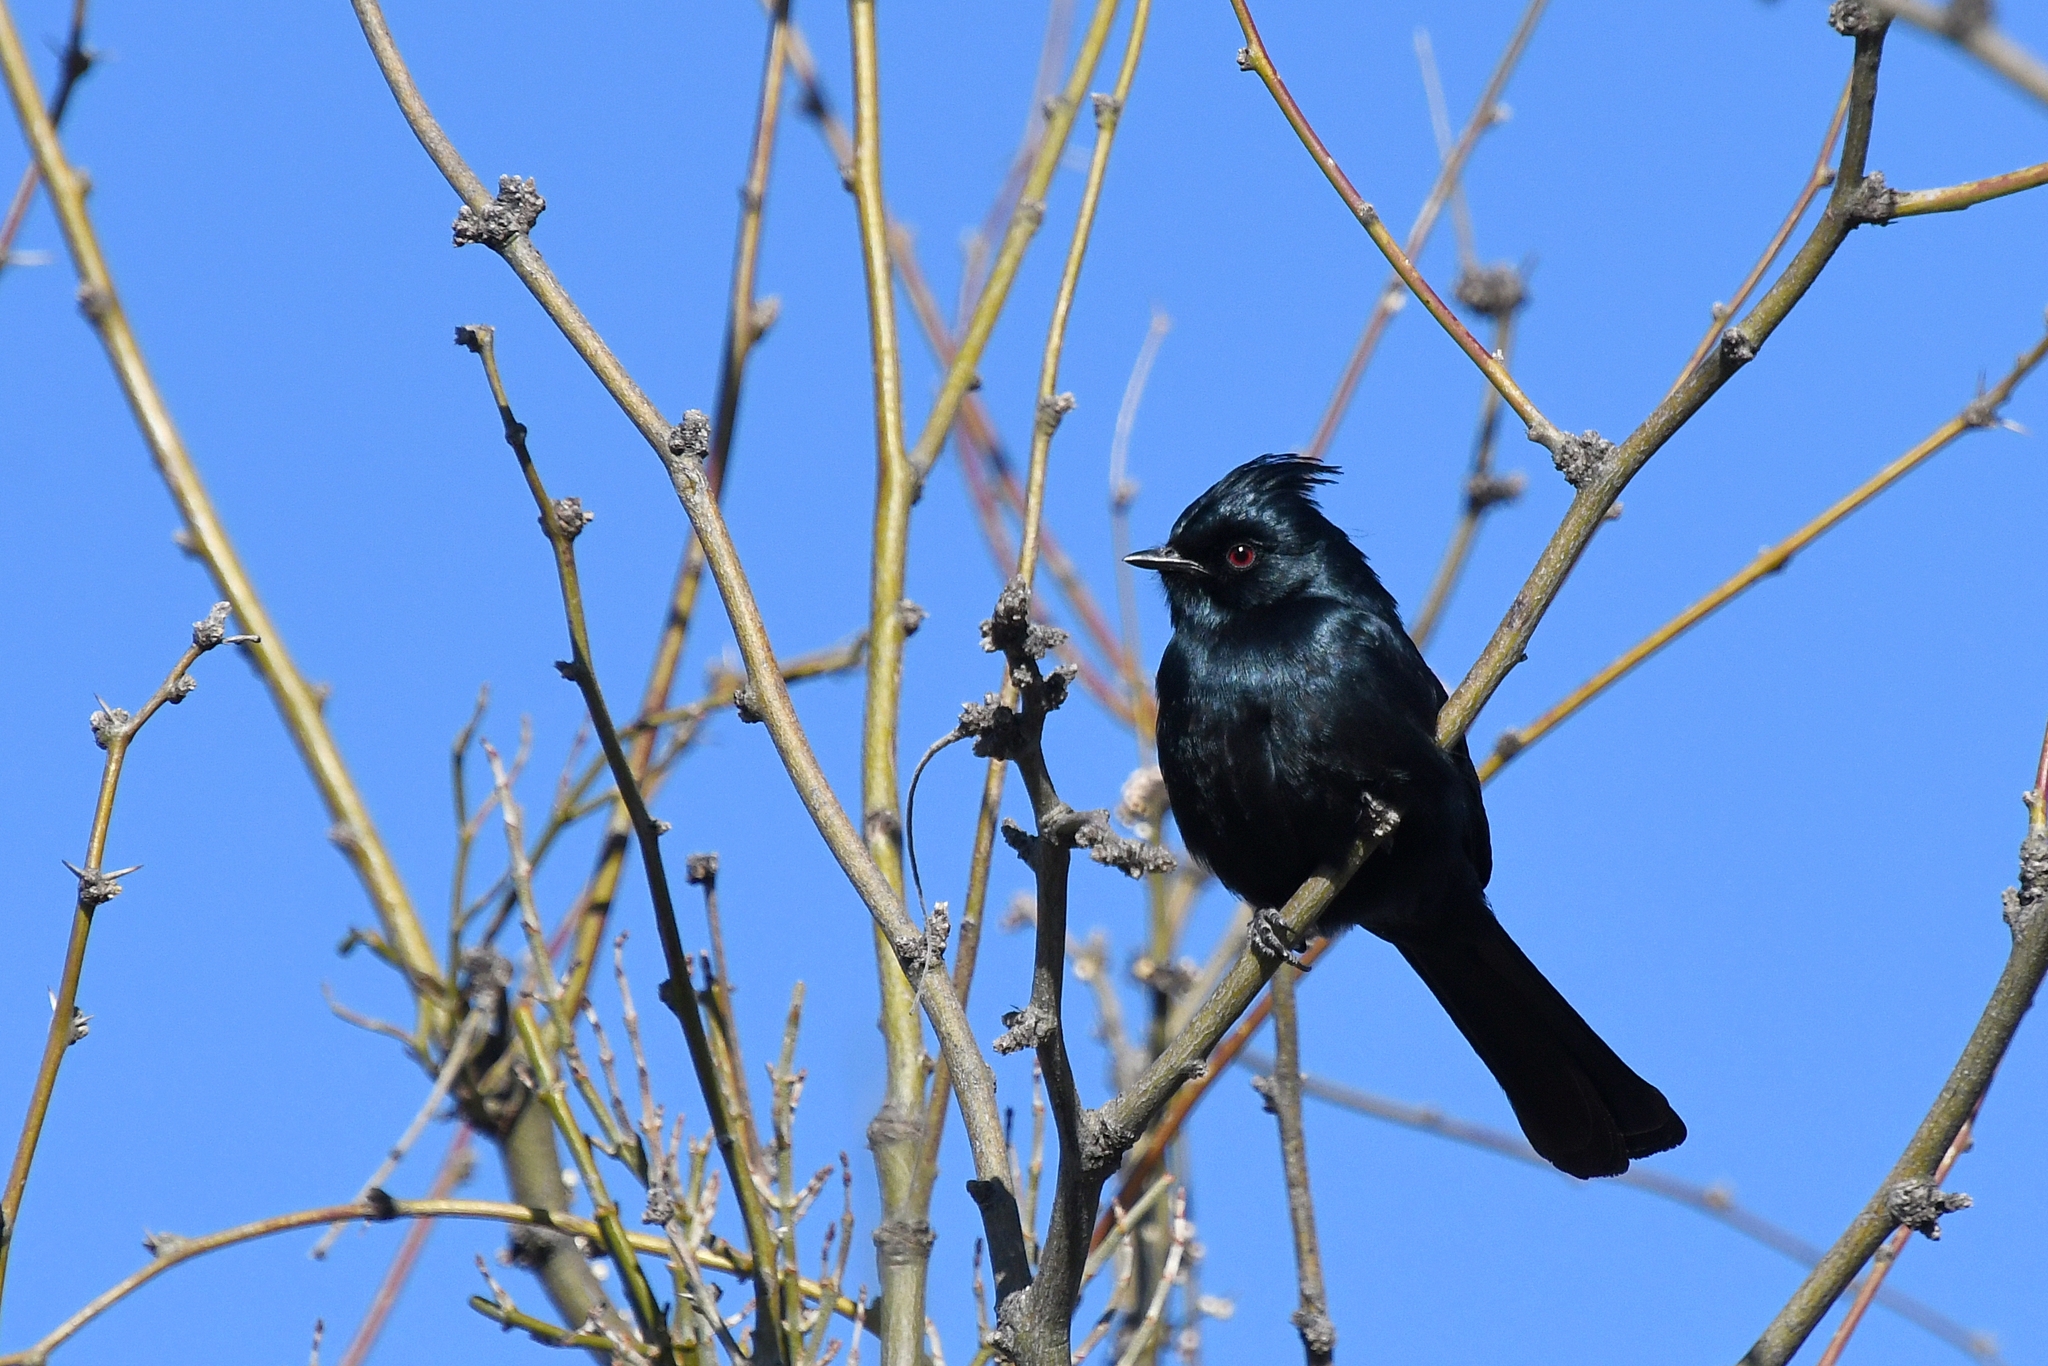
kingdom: Animalia
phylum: Chordata
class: Aves
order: Passeriformes
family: Ptilogonatidae
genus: Phainopepla
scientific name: Phainopepla nitens
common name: Phainopepla
